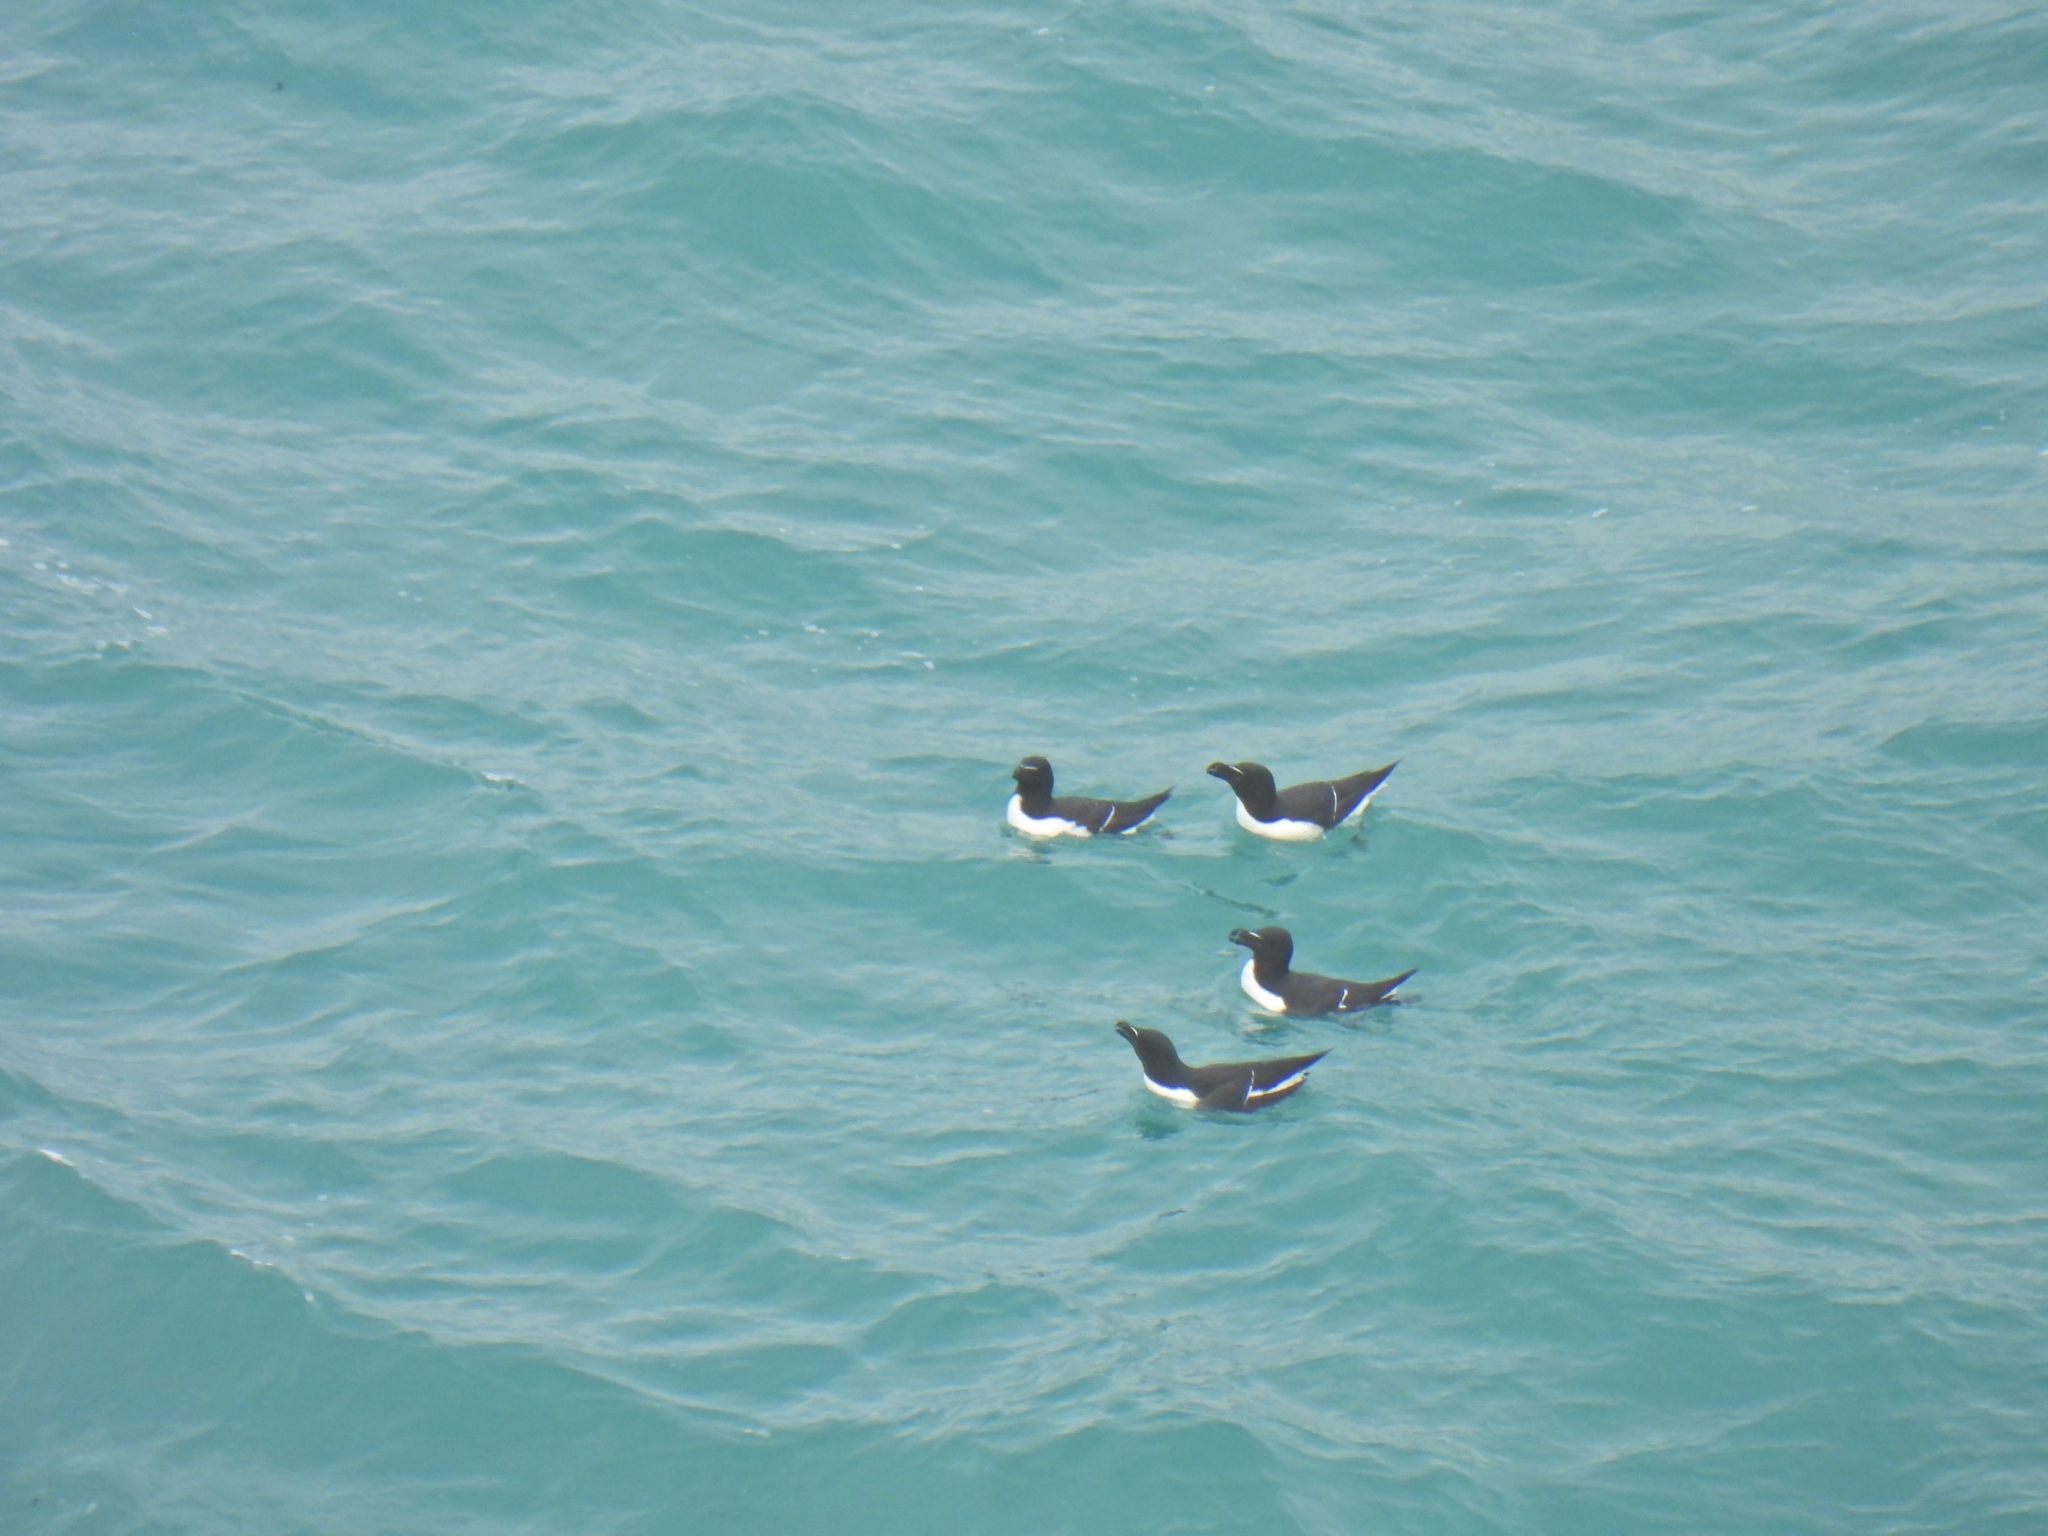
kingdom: Animalia
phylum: Chordata
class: Aves
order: Charadriiformes
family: Alcidae
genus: Alca
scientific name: Alca torda
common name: Razorbill
